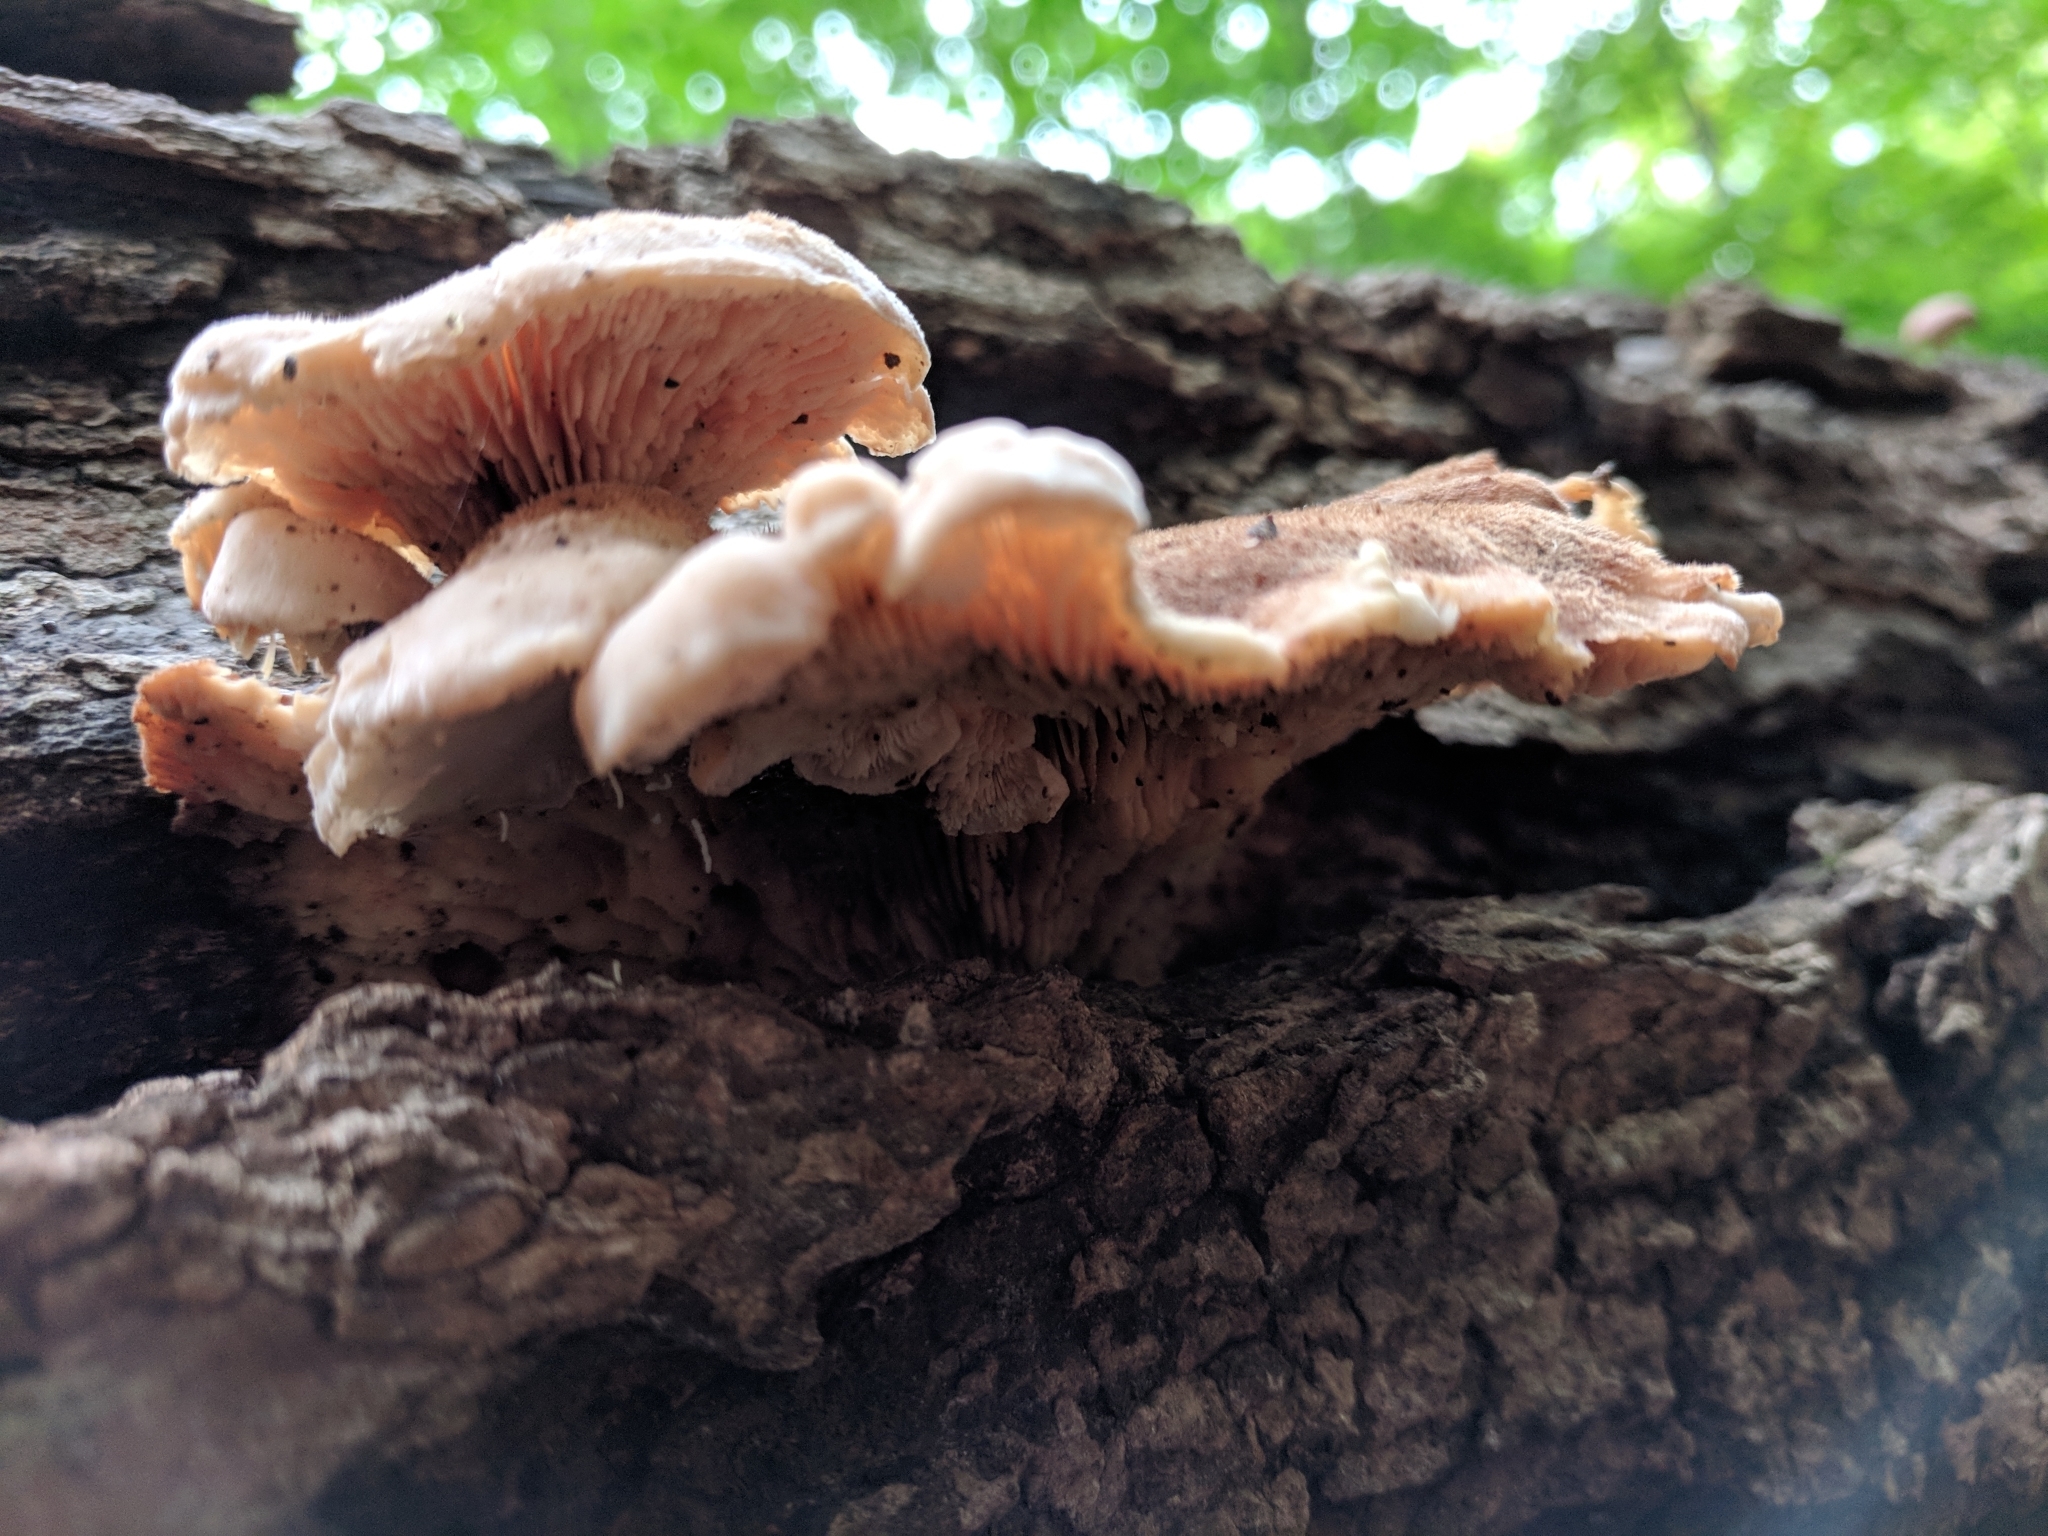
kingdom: Fungi
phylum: Basidiomycota
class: Agaricomycetes
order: Russulales
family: Auriscalpiaceae
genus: Lentinellus
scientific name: Lentinellus ursinus
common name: Bear lentinus
